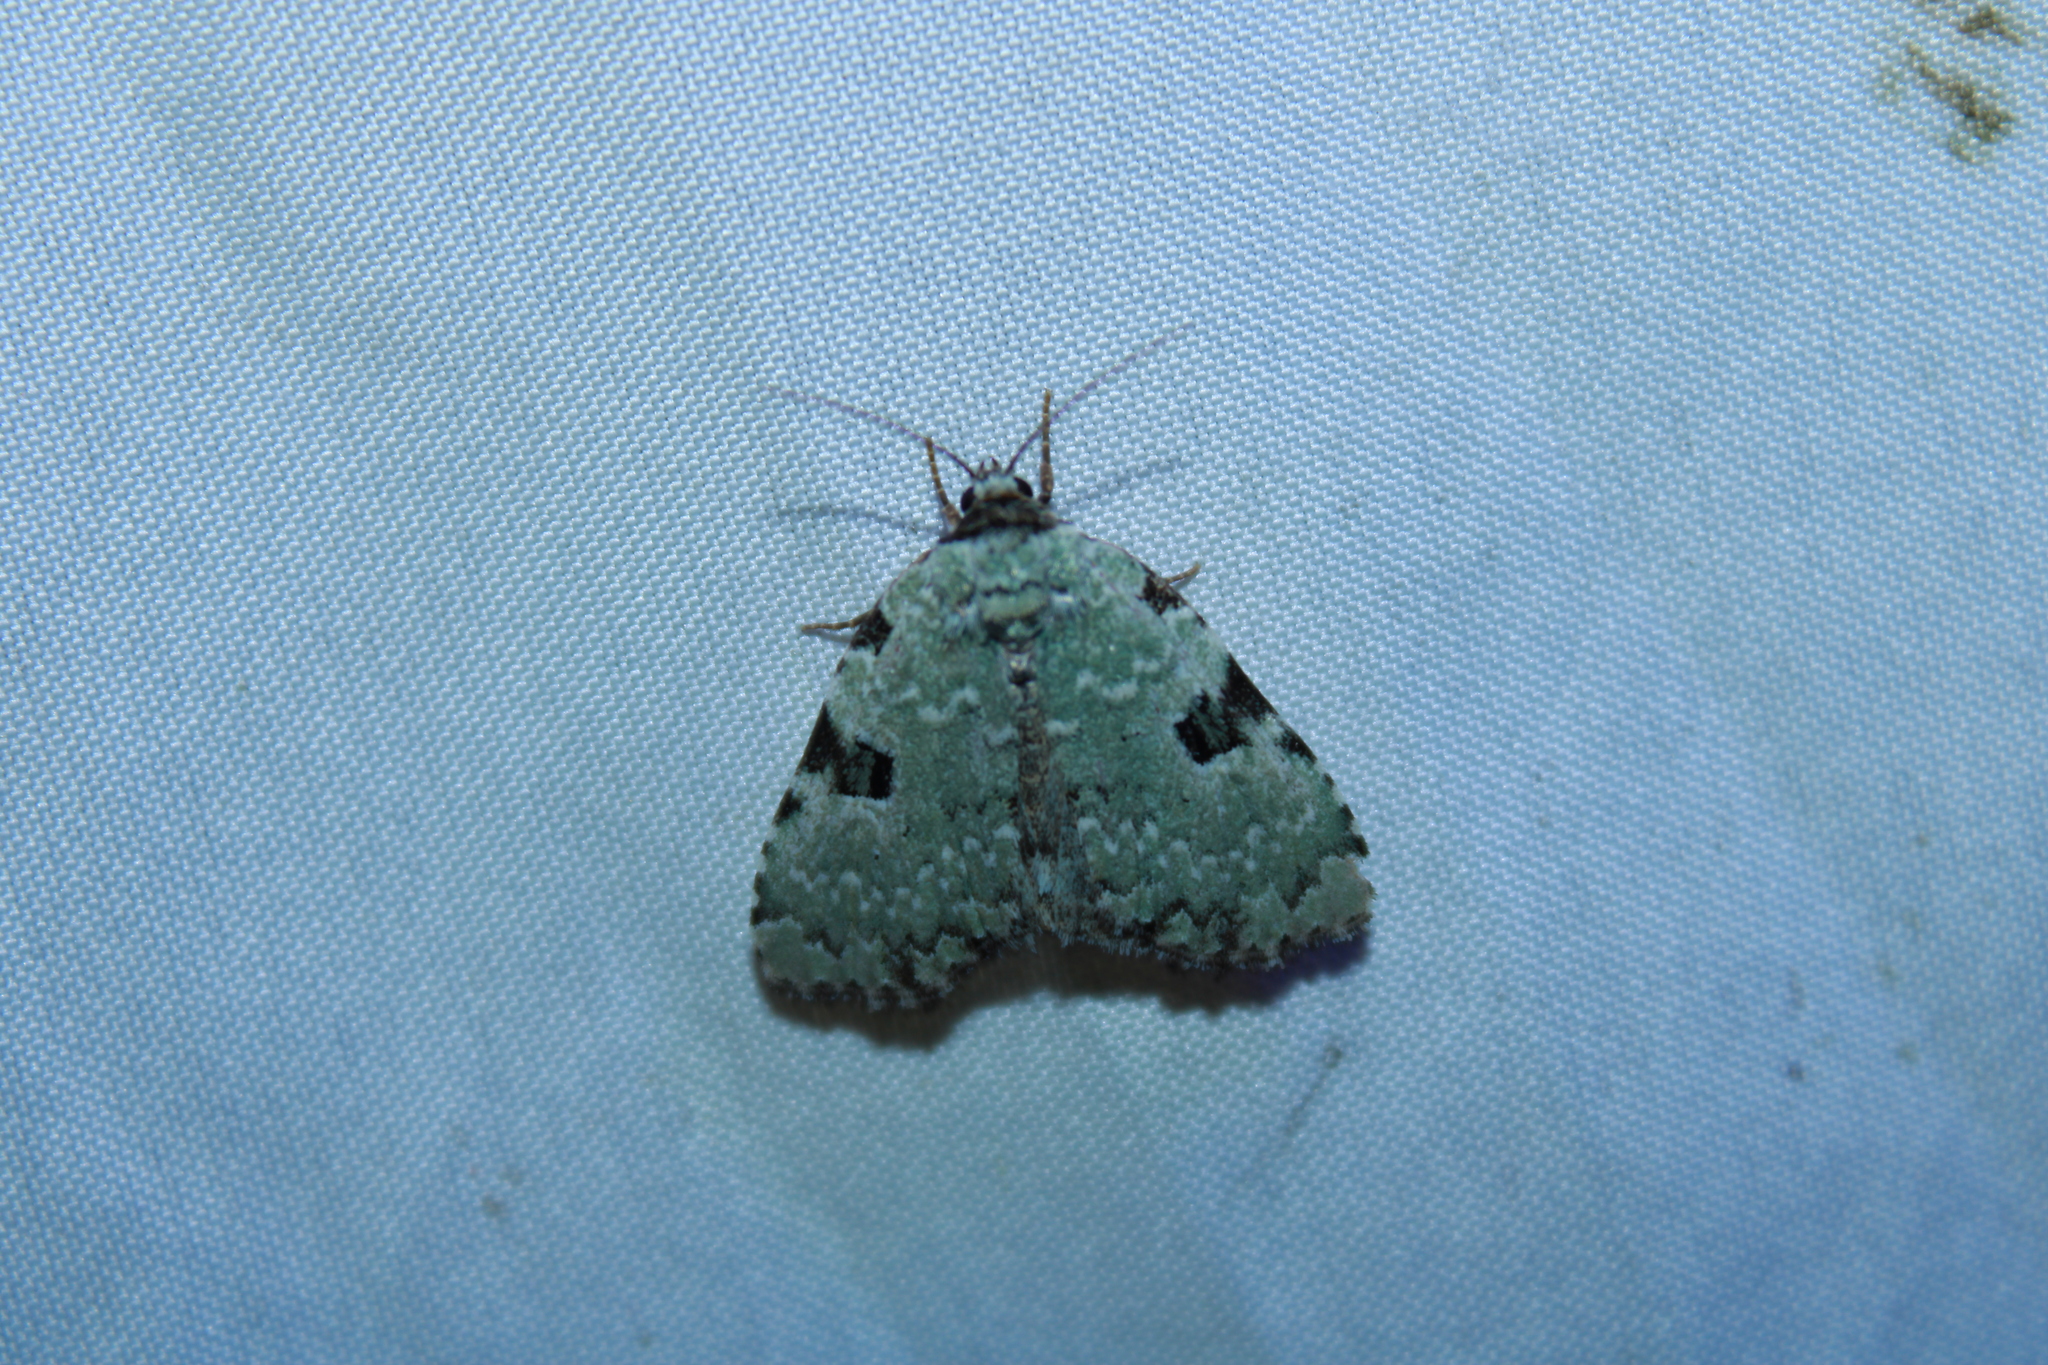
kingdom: Animalia
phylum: Arthropoda
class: Insecta
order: Lepidoptera
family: Noctuidae
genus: Leuconycta
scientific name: Leuconycta diphteroides
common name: Green leuconycta moth
